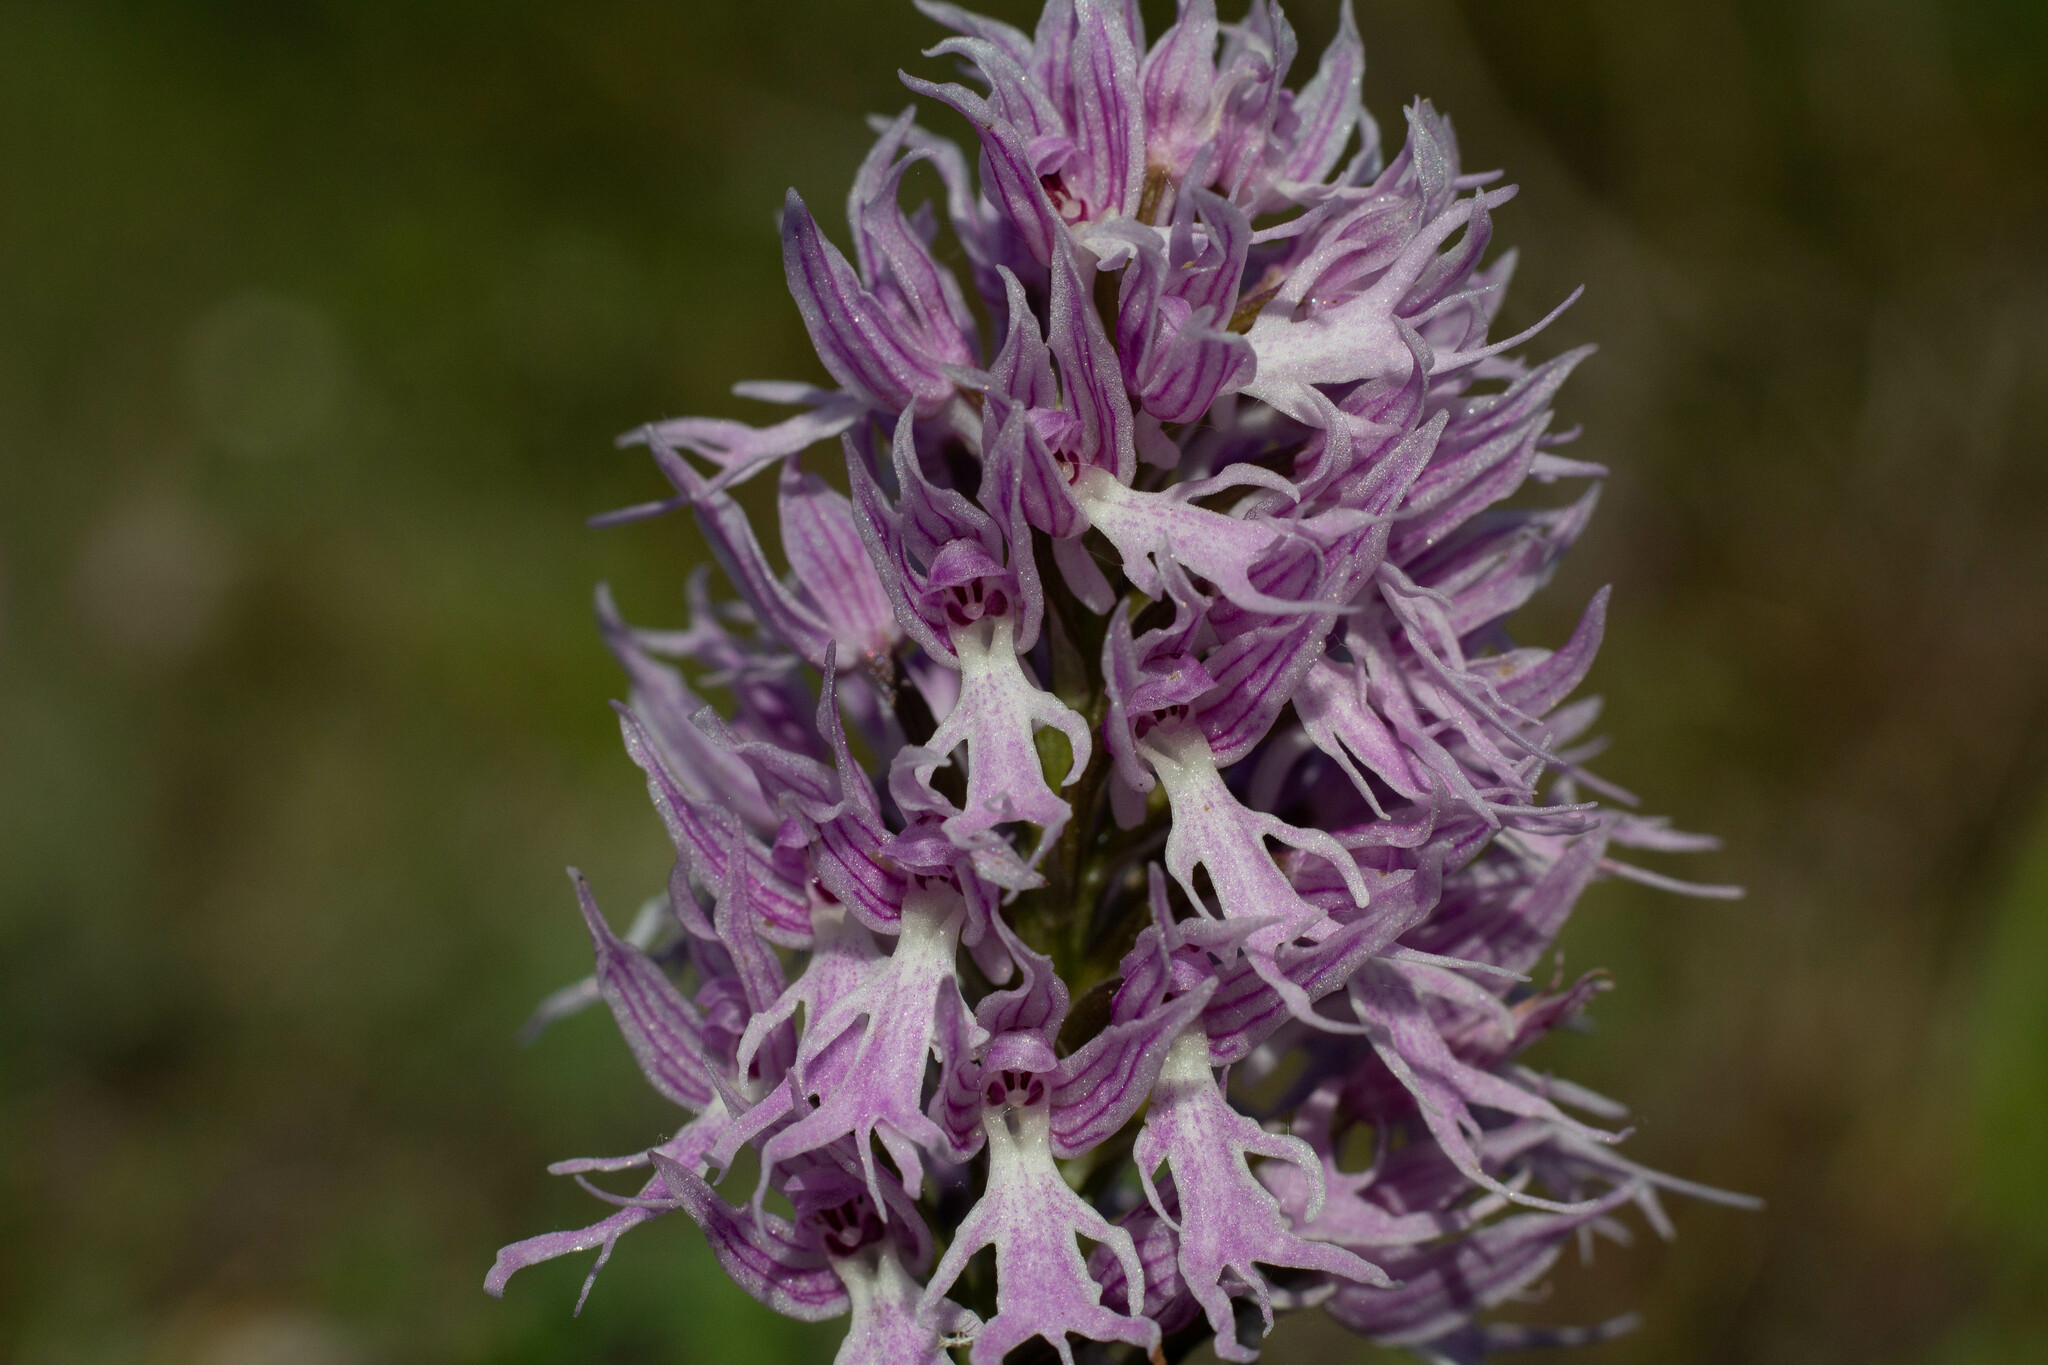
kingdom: Plantae
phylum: Tracheophyta
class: Liliopsida
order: Asparagales
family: Orchidaceae
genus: Orchis
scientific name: Orchis italica
